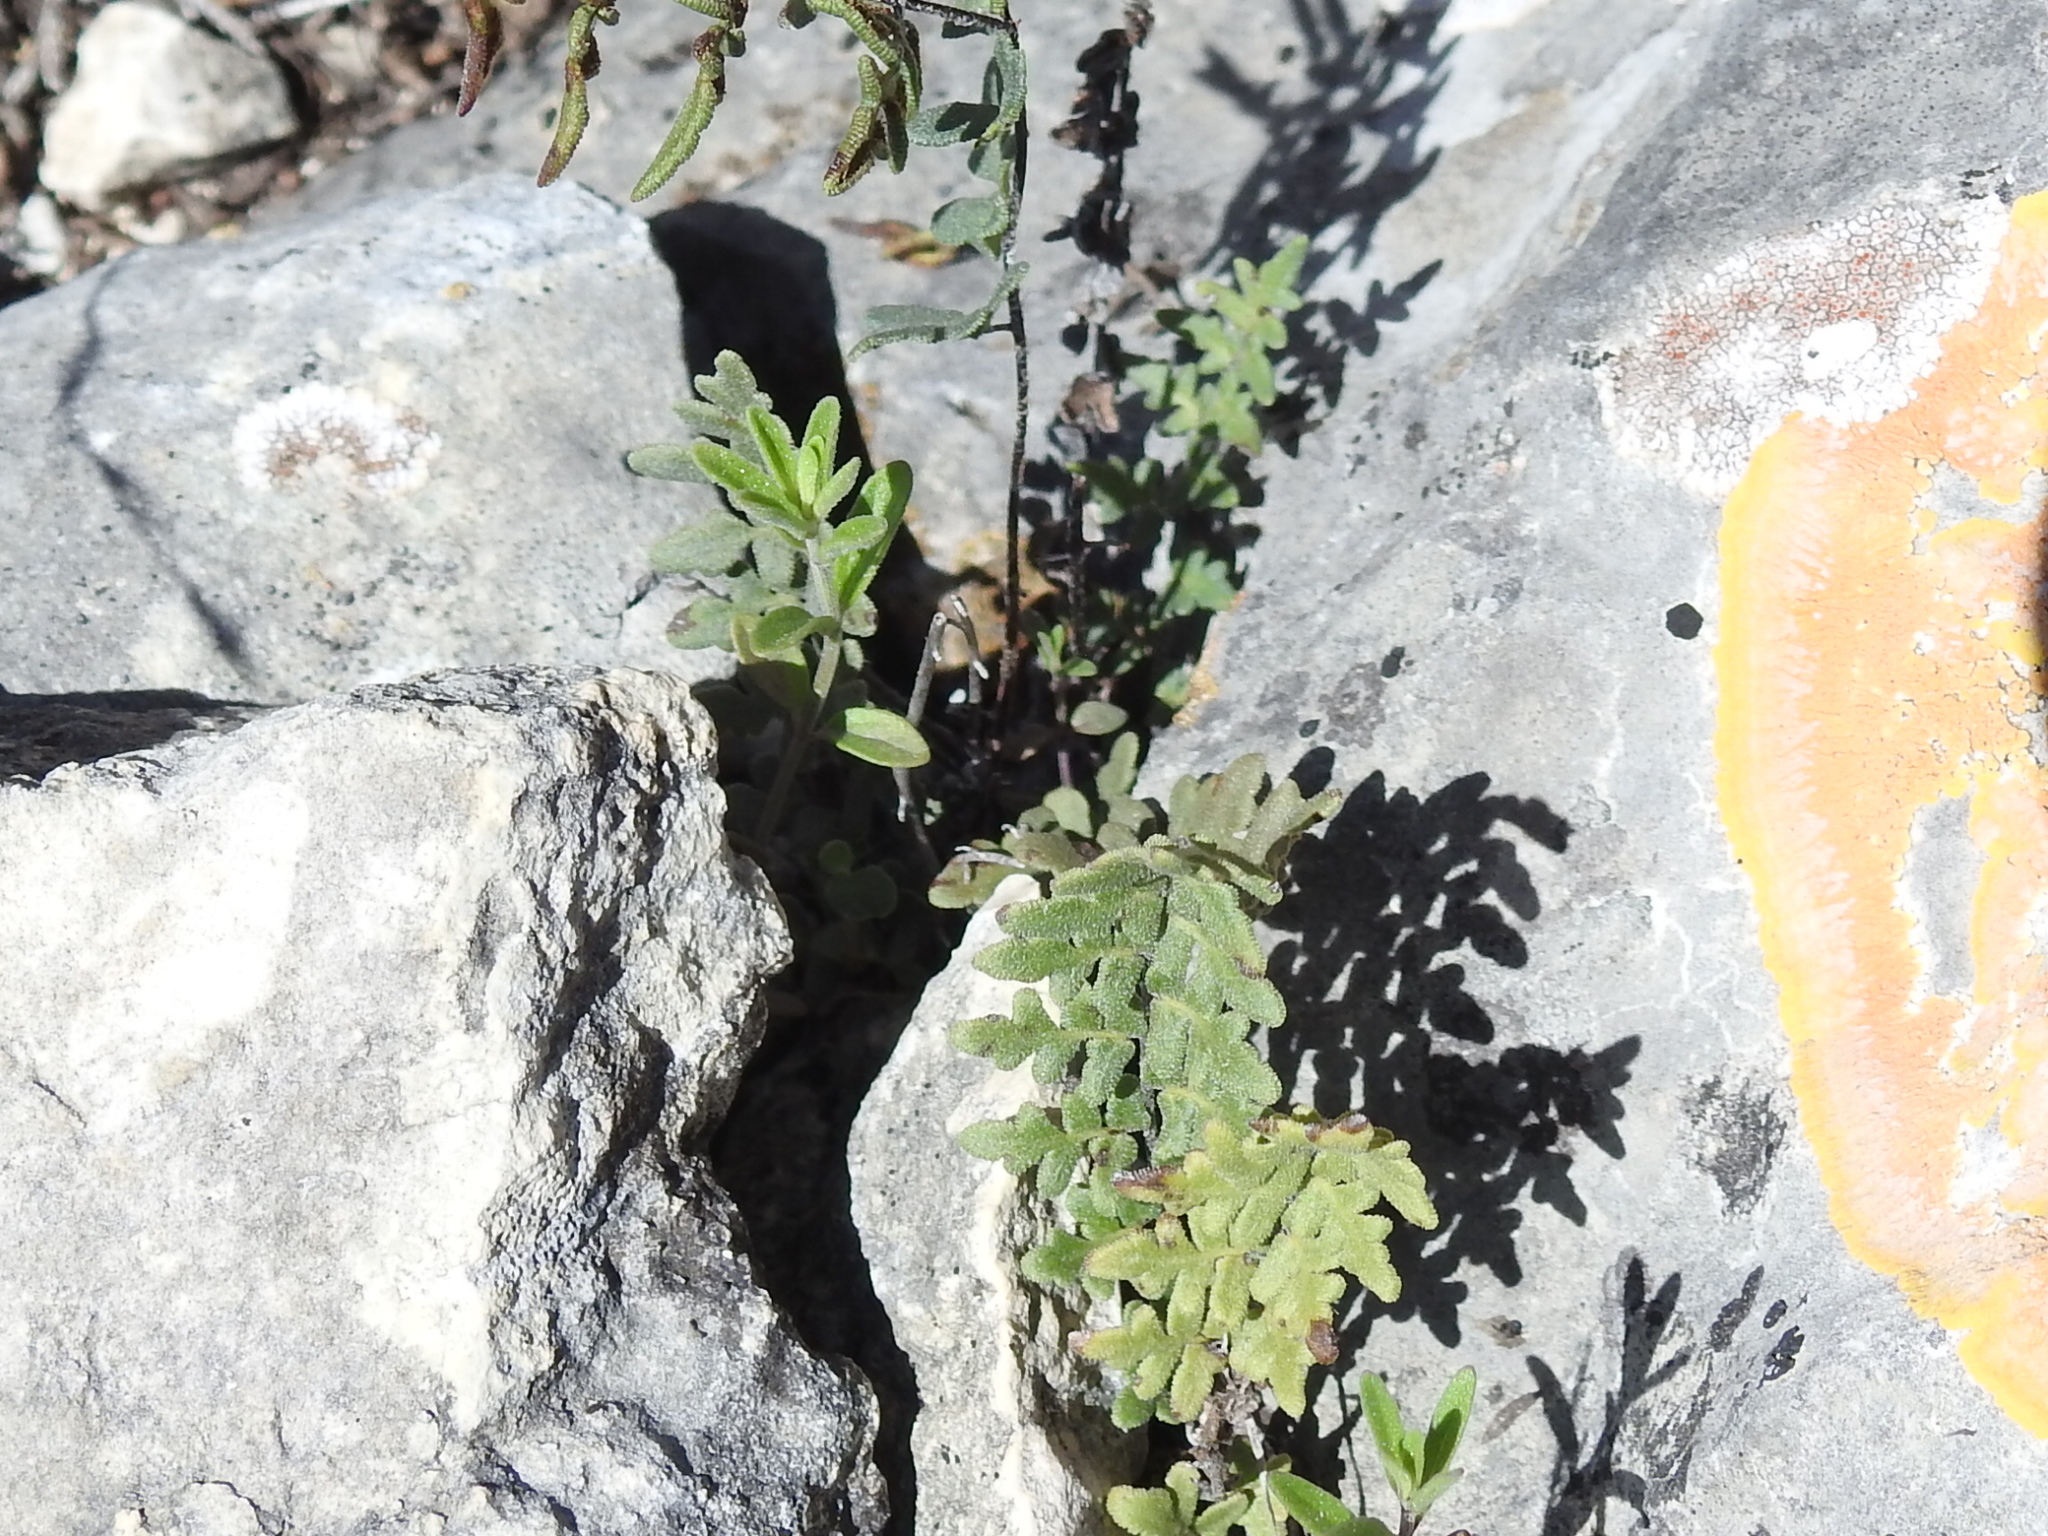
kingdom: Plantae
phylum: Tracheophyta
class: Polypodiopsida
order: Polypodiales
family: Pteridaceae
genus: Myriopteris
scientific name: Myriopteris scabra
